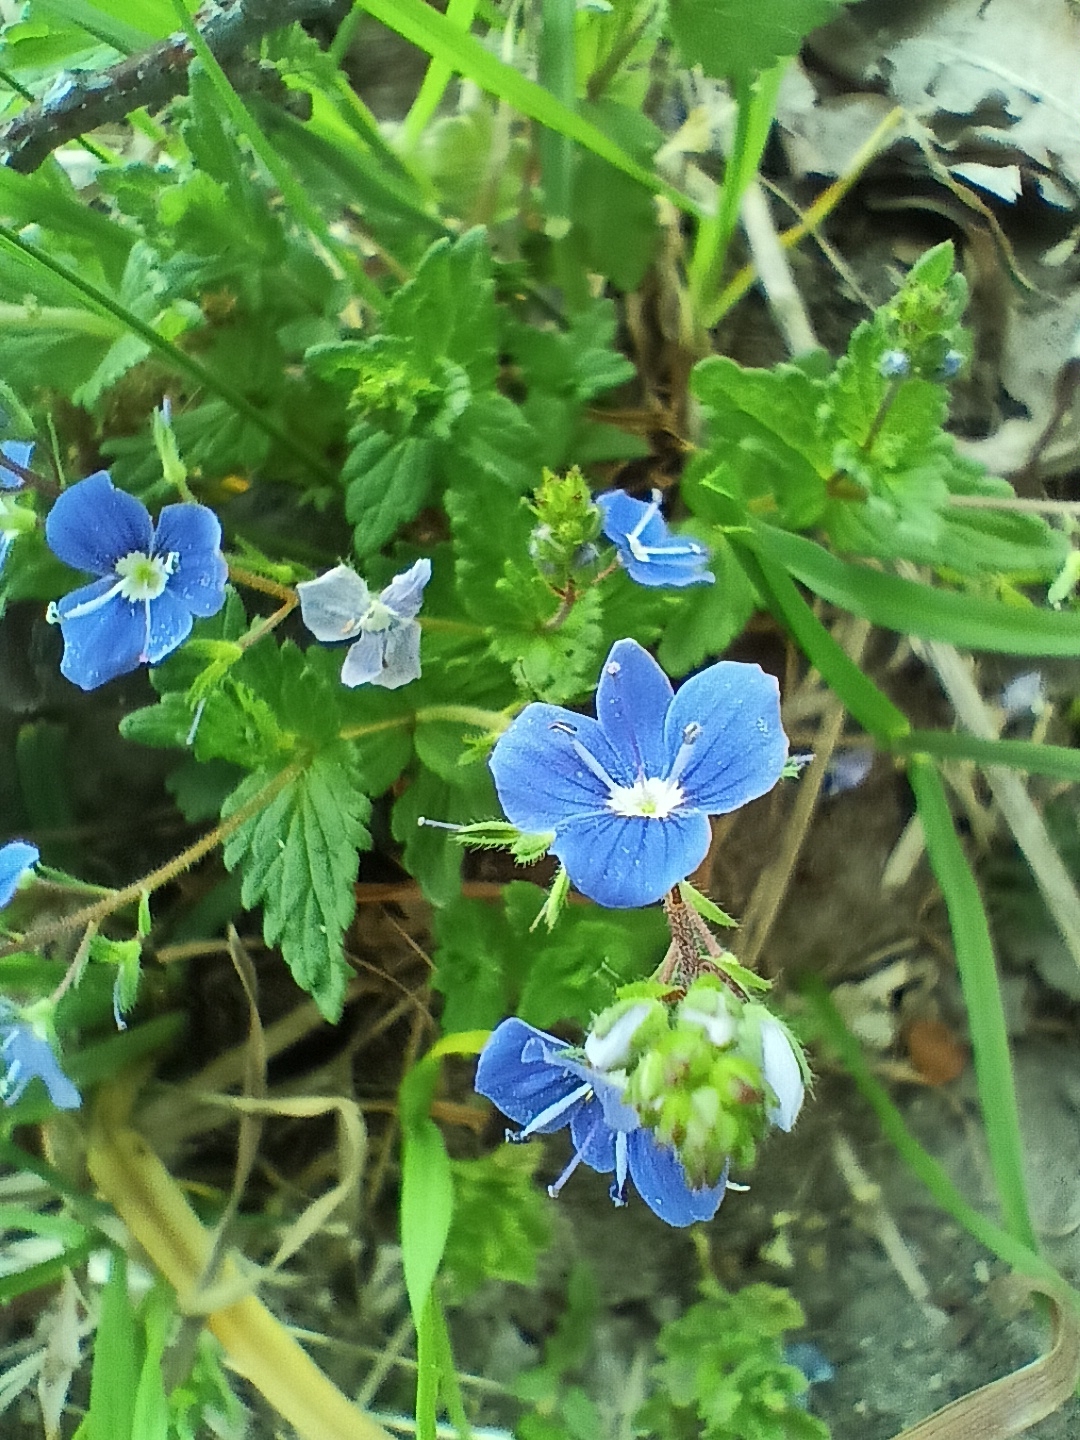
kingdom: Plantae
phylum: Tracheophyta
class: Magnoliopsida
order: Lamiales
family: Plantaginaceae
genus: Veronica
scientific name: Veronica chamaedrys
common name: Germander speedwell
